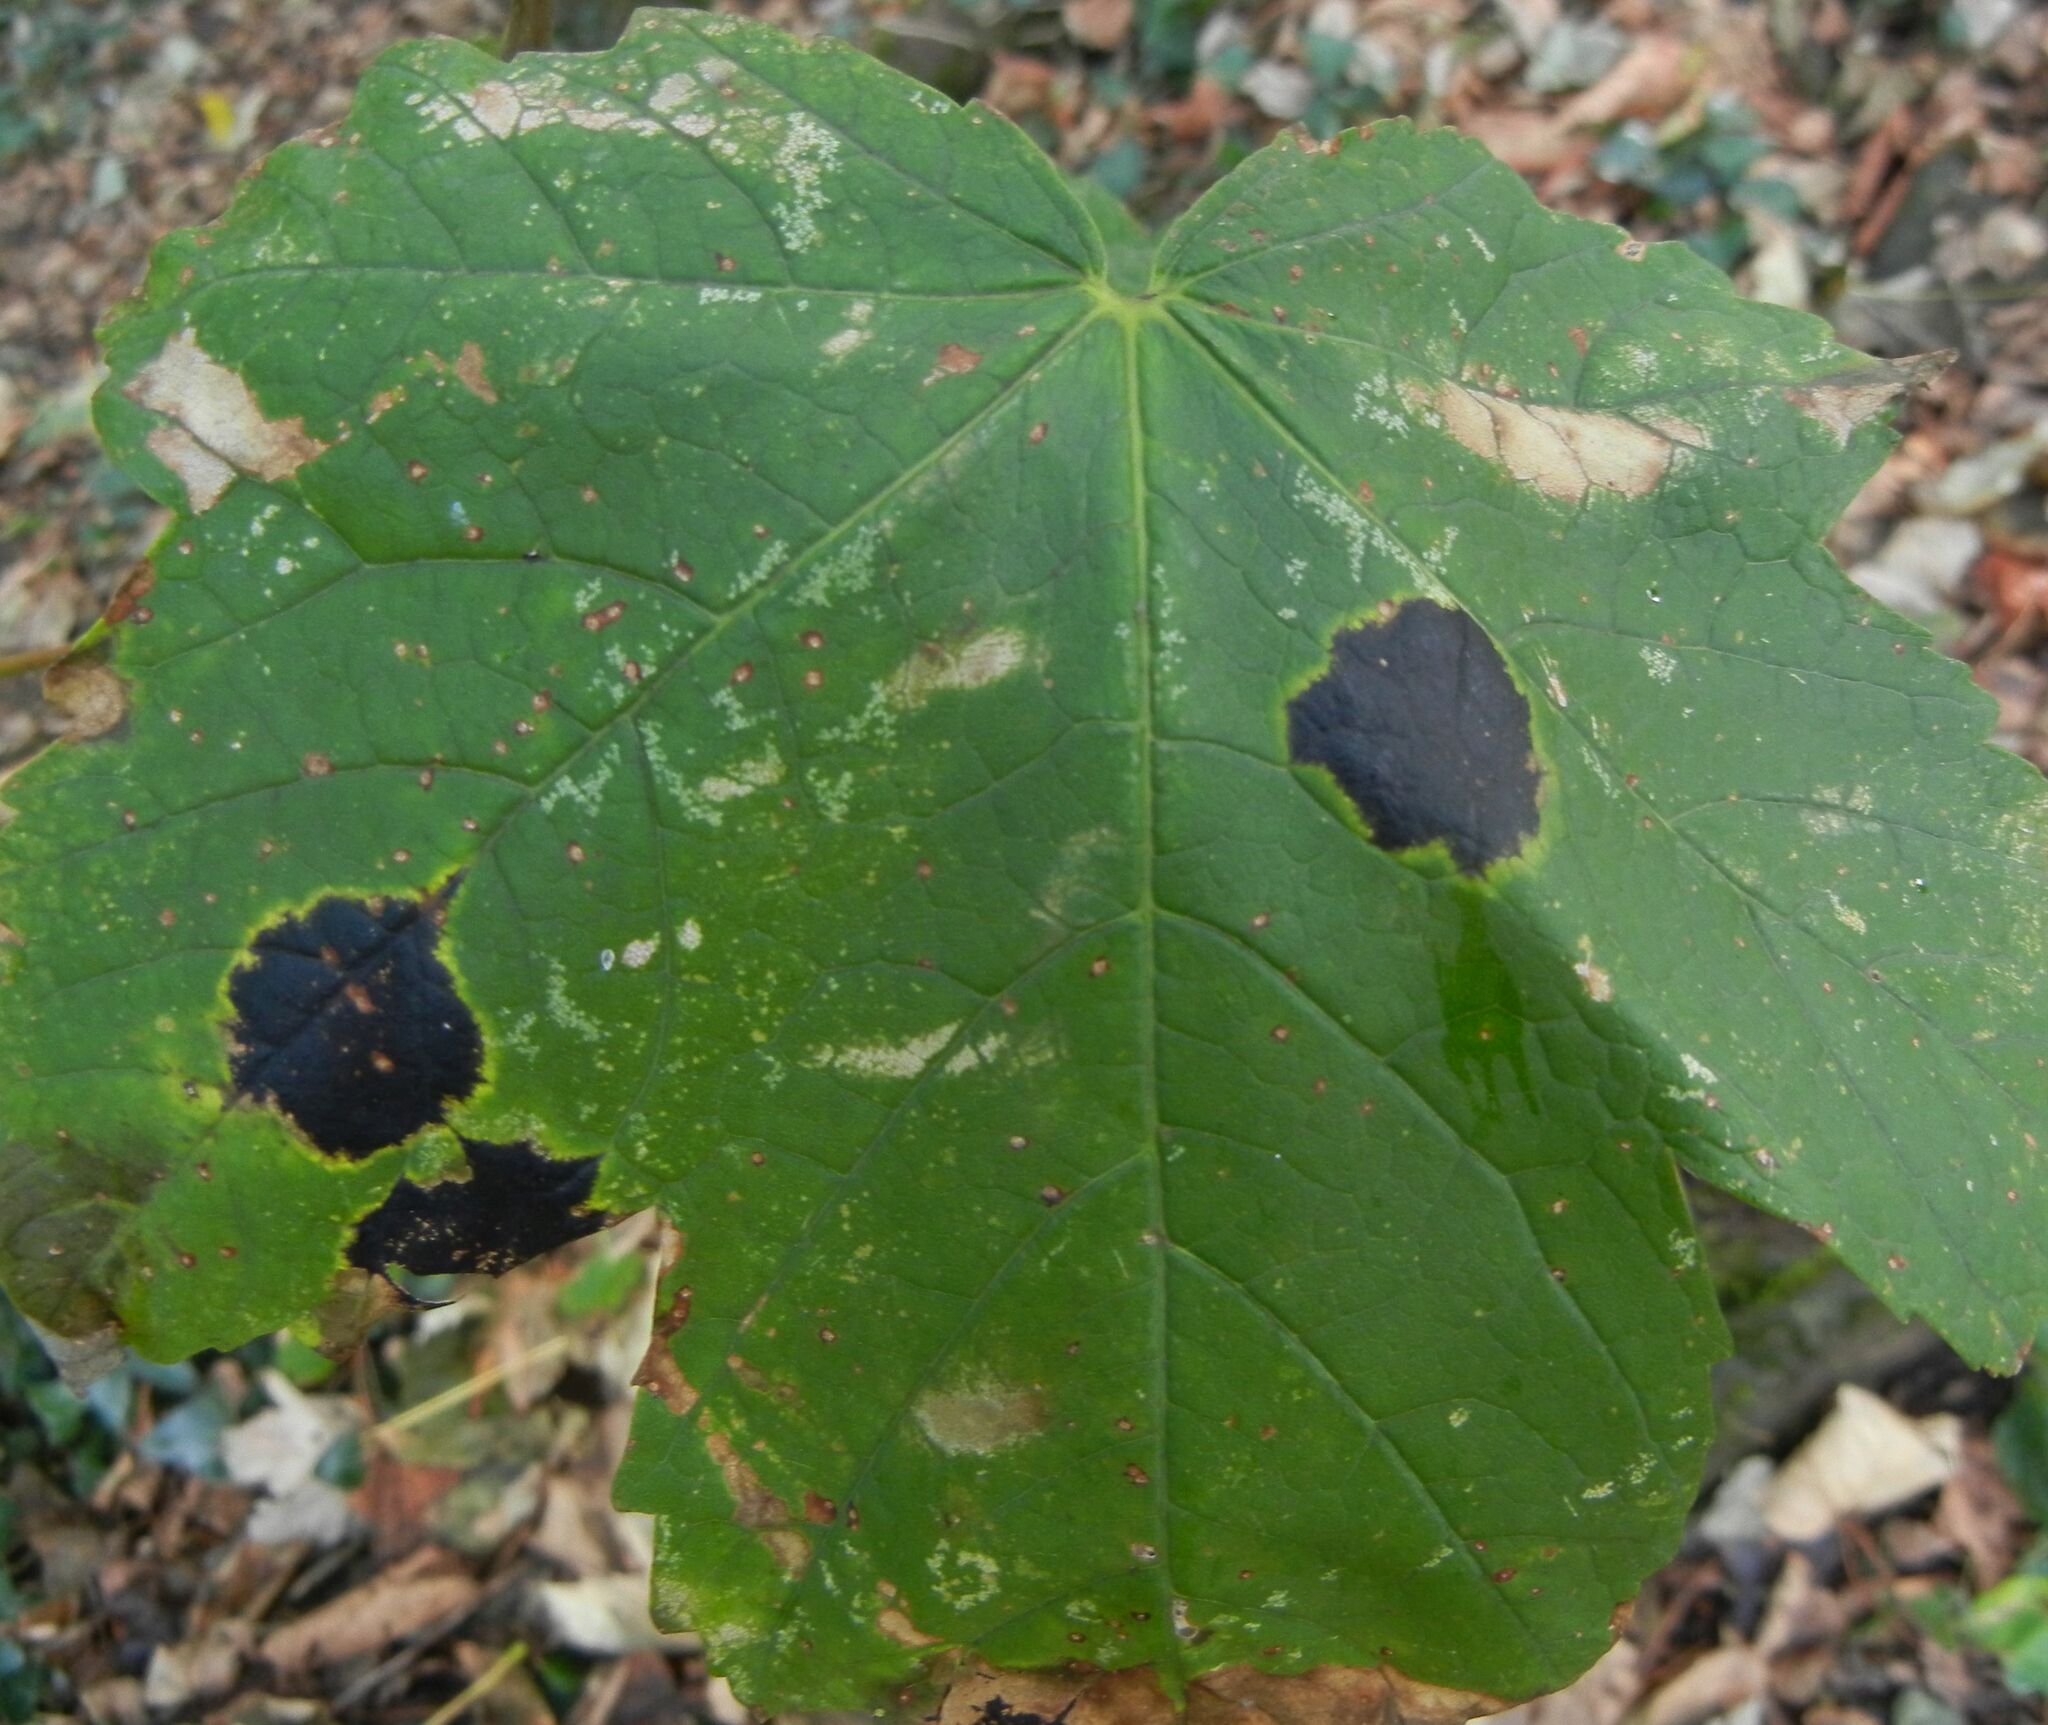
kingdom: Fungi
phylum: Ascomycota
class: Leotiomycetes
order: Rhytismatales
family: Rhytismataceae
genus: Rhytisma
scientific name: Rhytisma acerinum
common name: European tar spot
